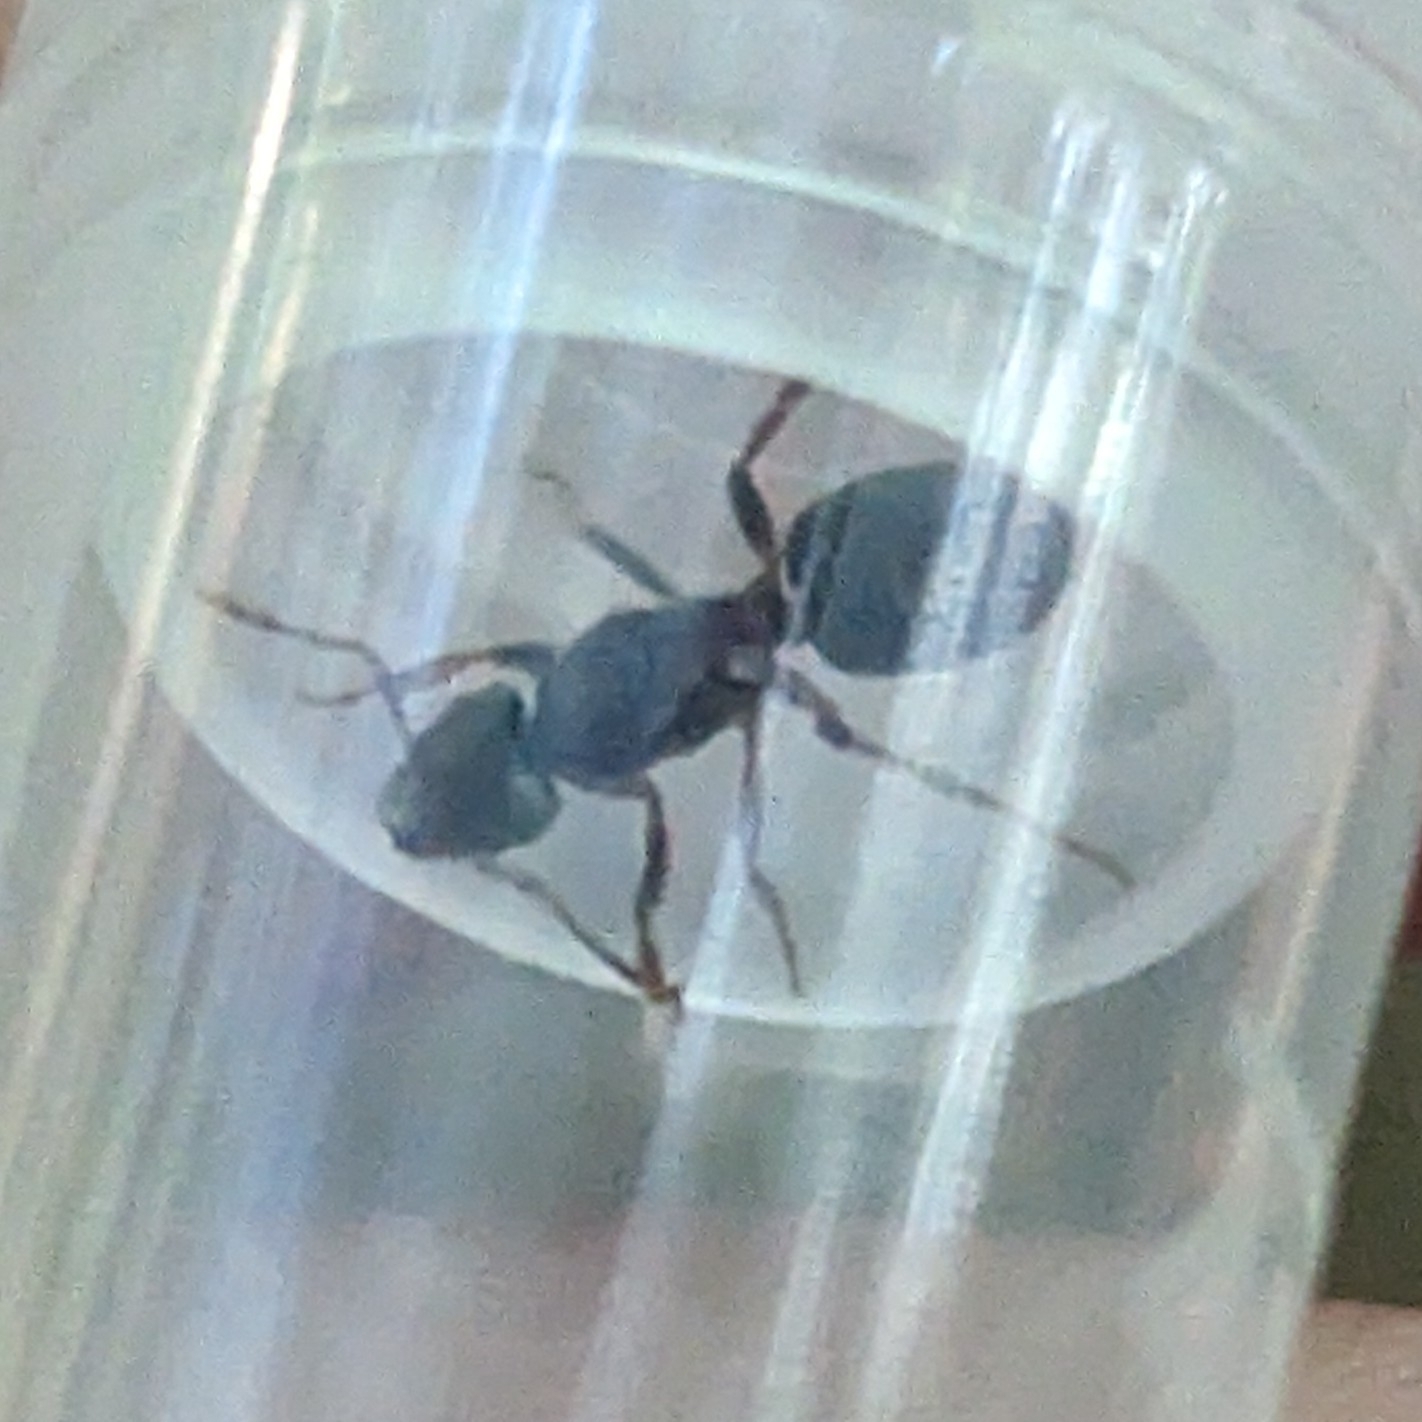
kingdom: Animalia
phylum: Arthropoda
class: Insecta
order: Hymenoptera
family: Formicidae
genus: Lasius
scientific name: Lasius aphidicola
